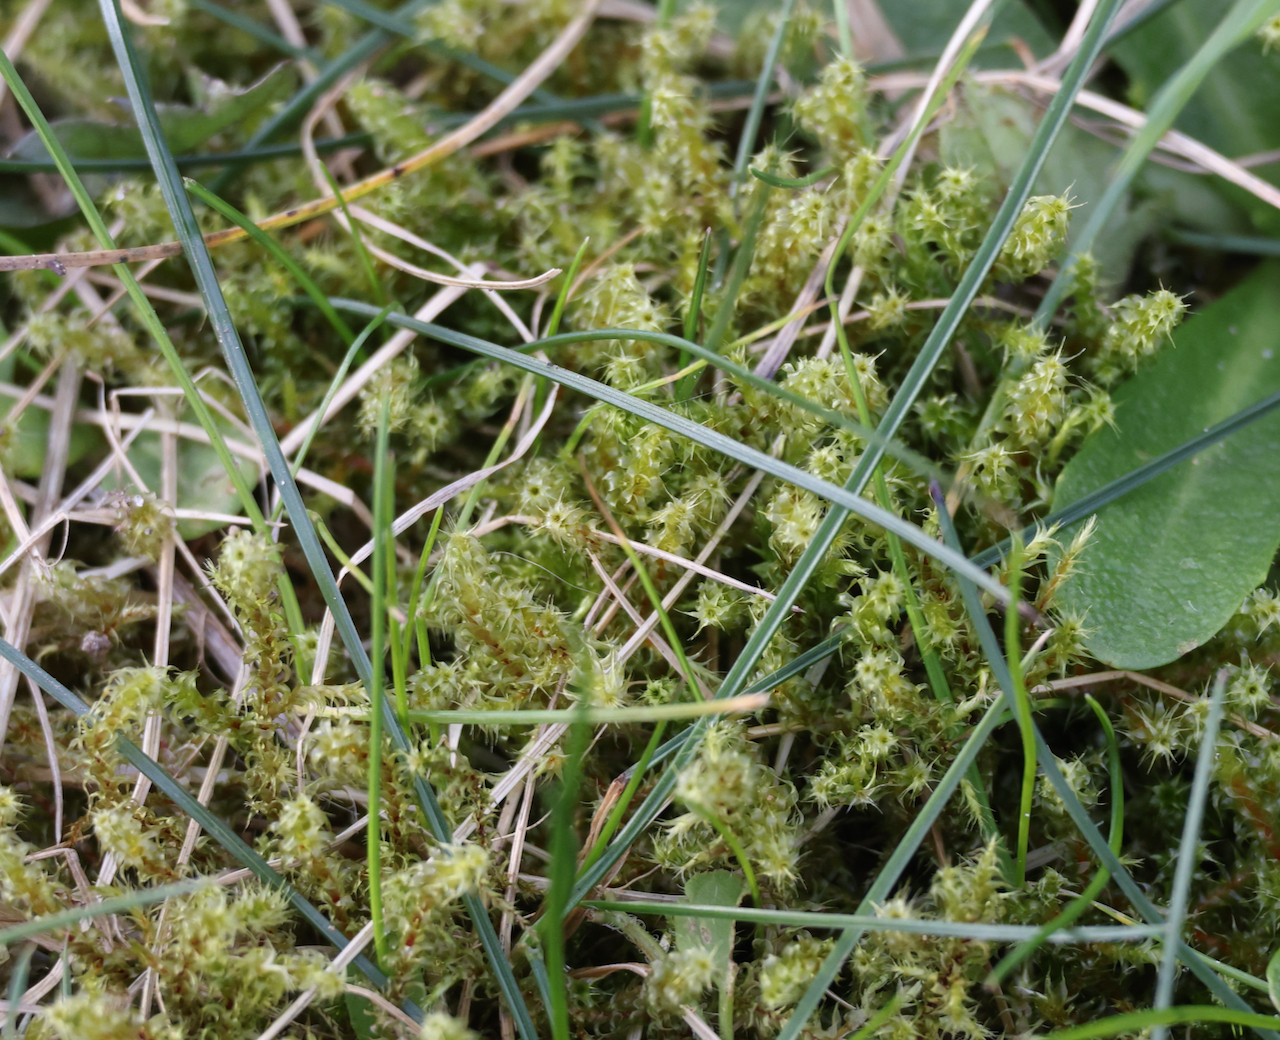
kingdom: Plantae
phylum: Bryophyta
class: Bryopsida
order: Hypnales
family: Hylocomiaceae
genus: Rhytidiadelphus
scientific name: Rhytidiadelphus squarrosus
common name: Springy turf-moss
